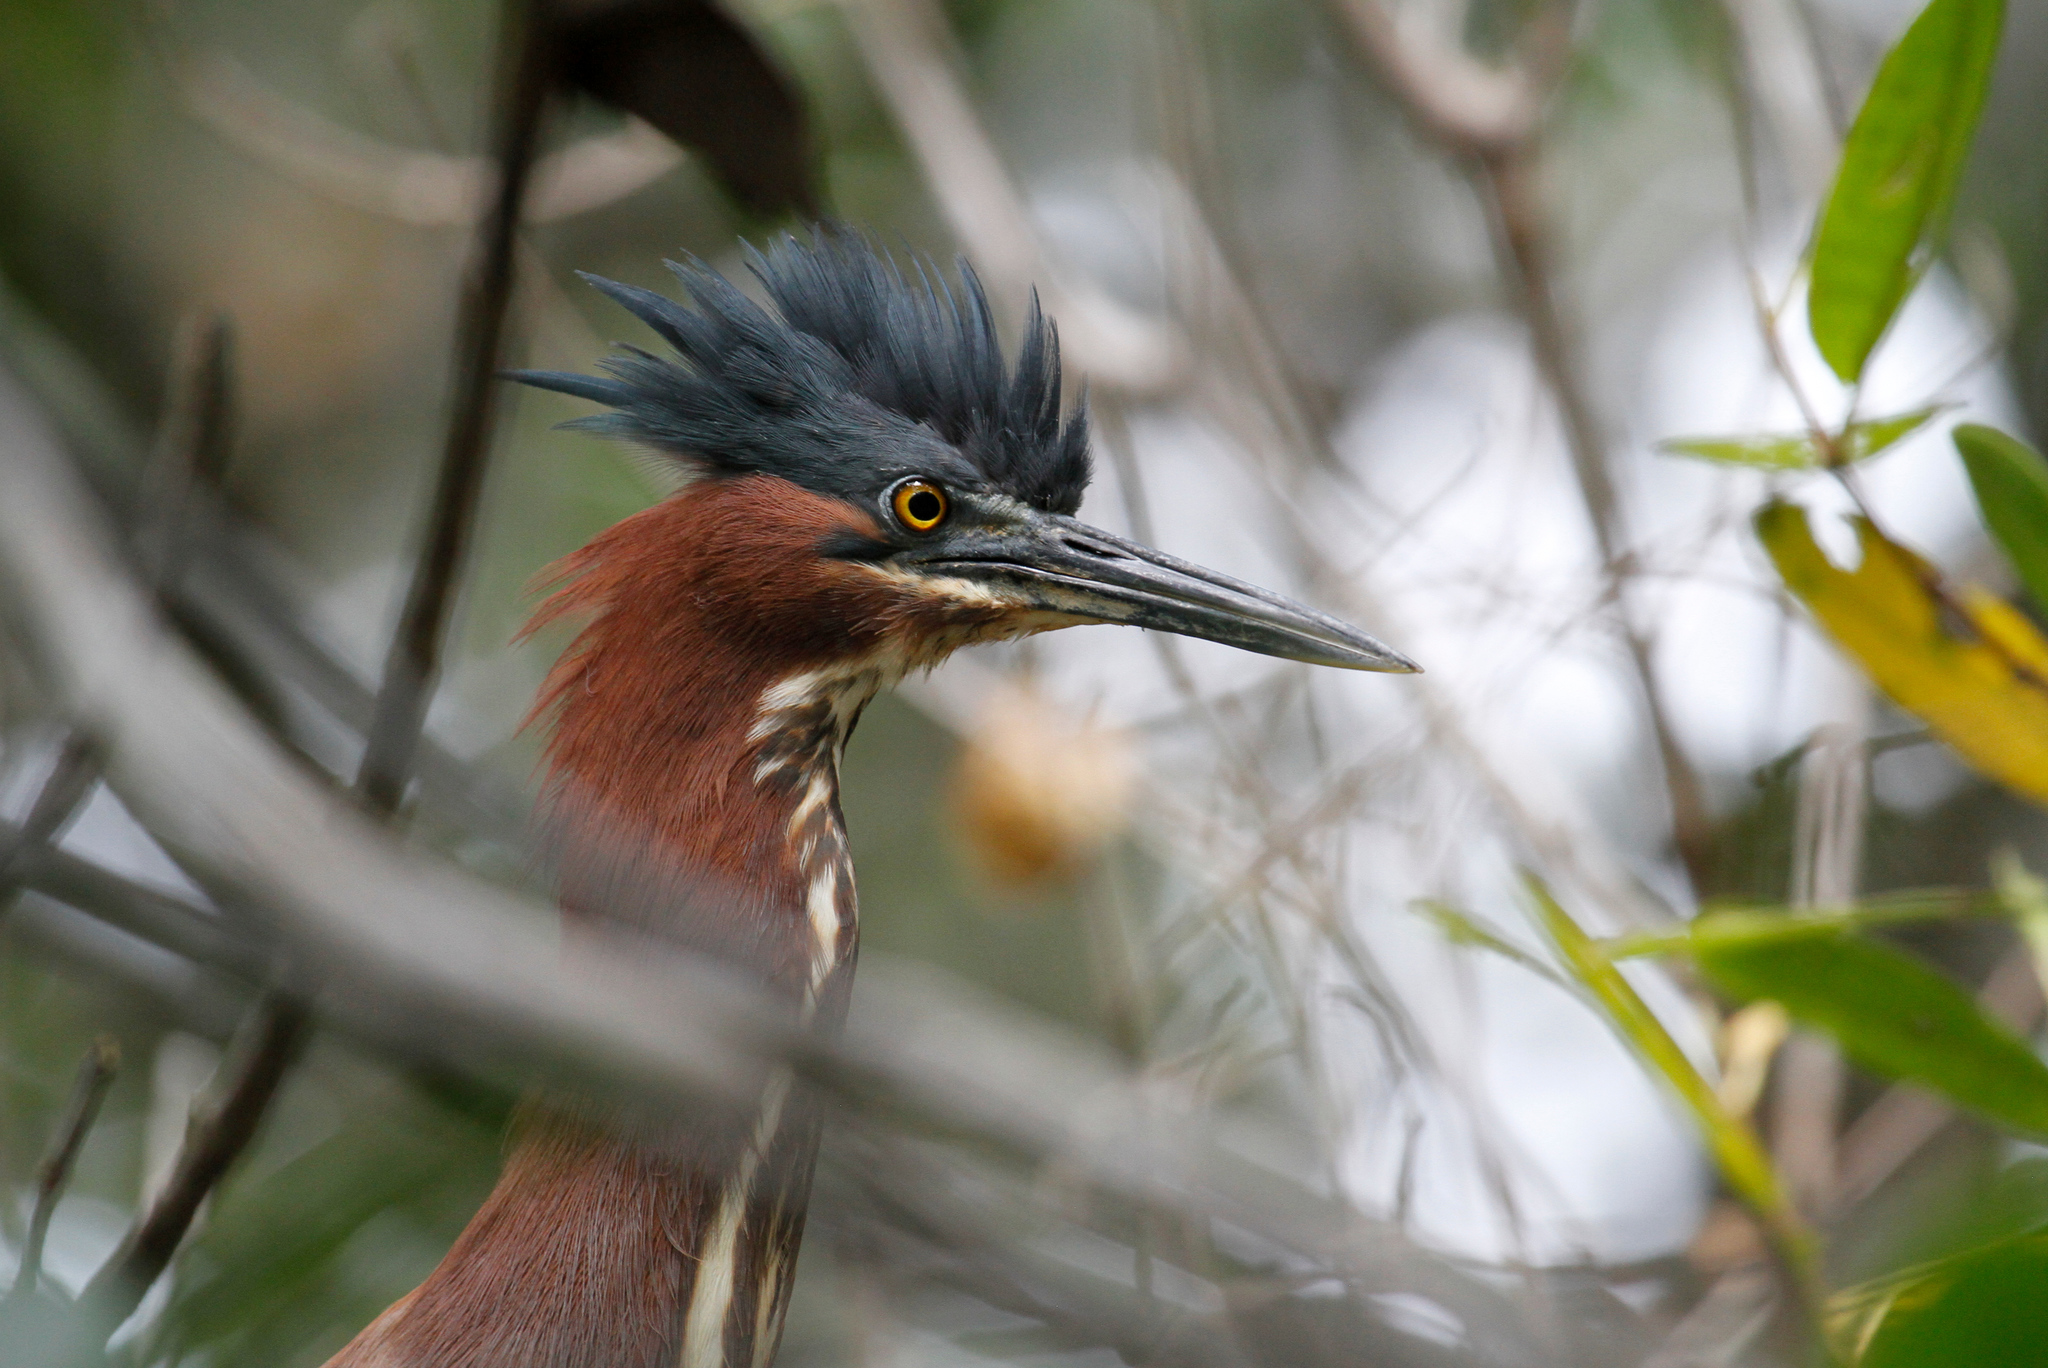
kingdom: Animalia
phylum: Chordata
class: Aves
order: Pelecaniformes
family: Ardeidae
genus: Butorides
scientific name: Butorides virescens
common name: Green heron
